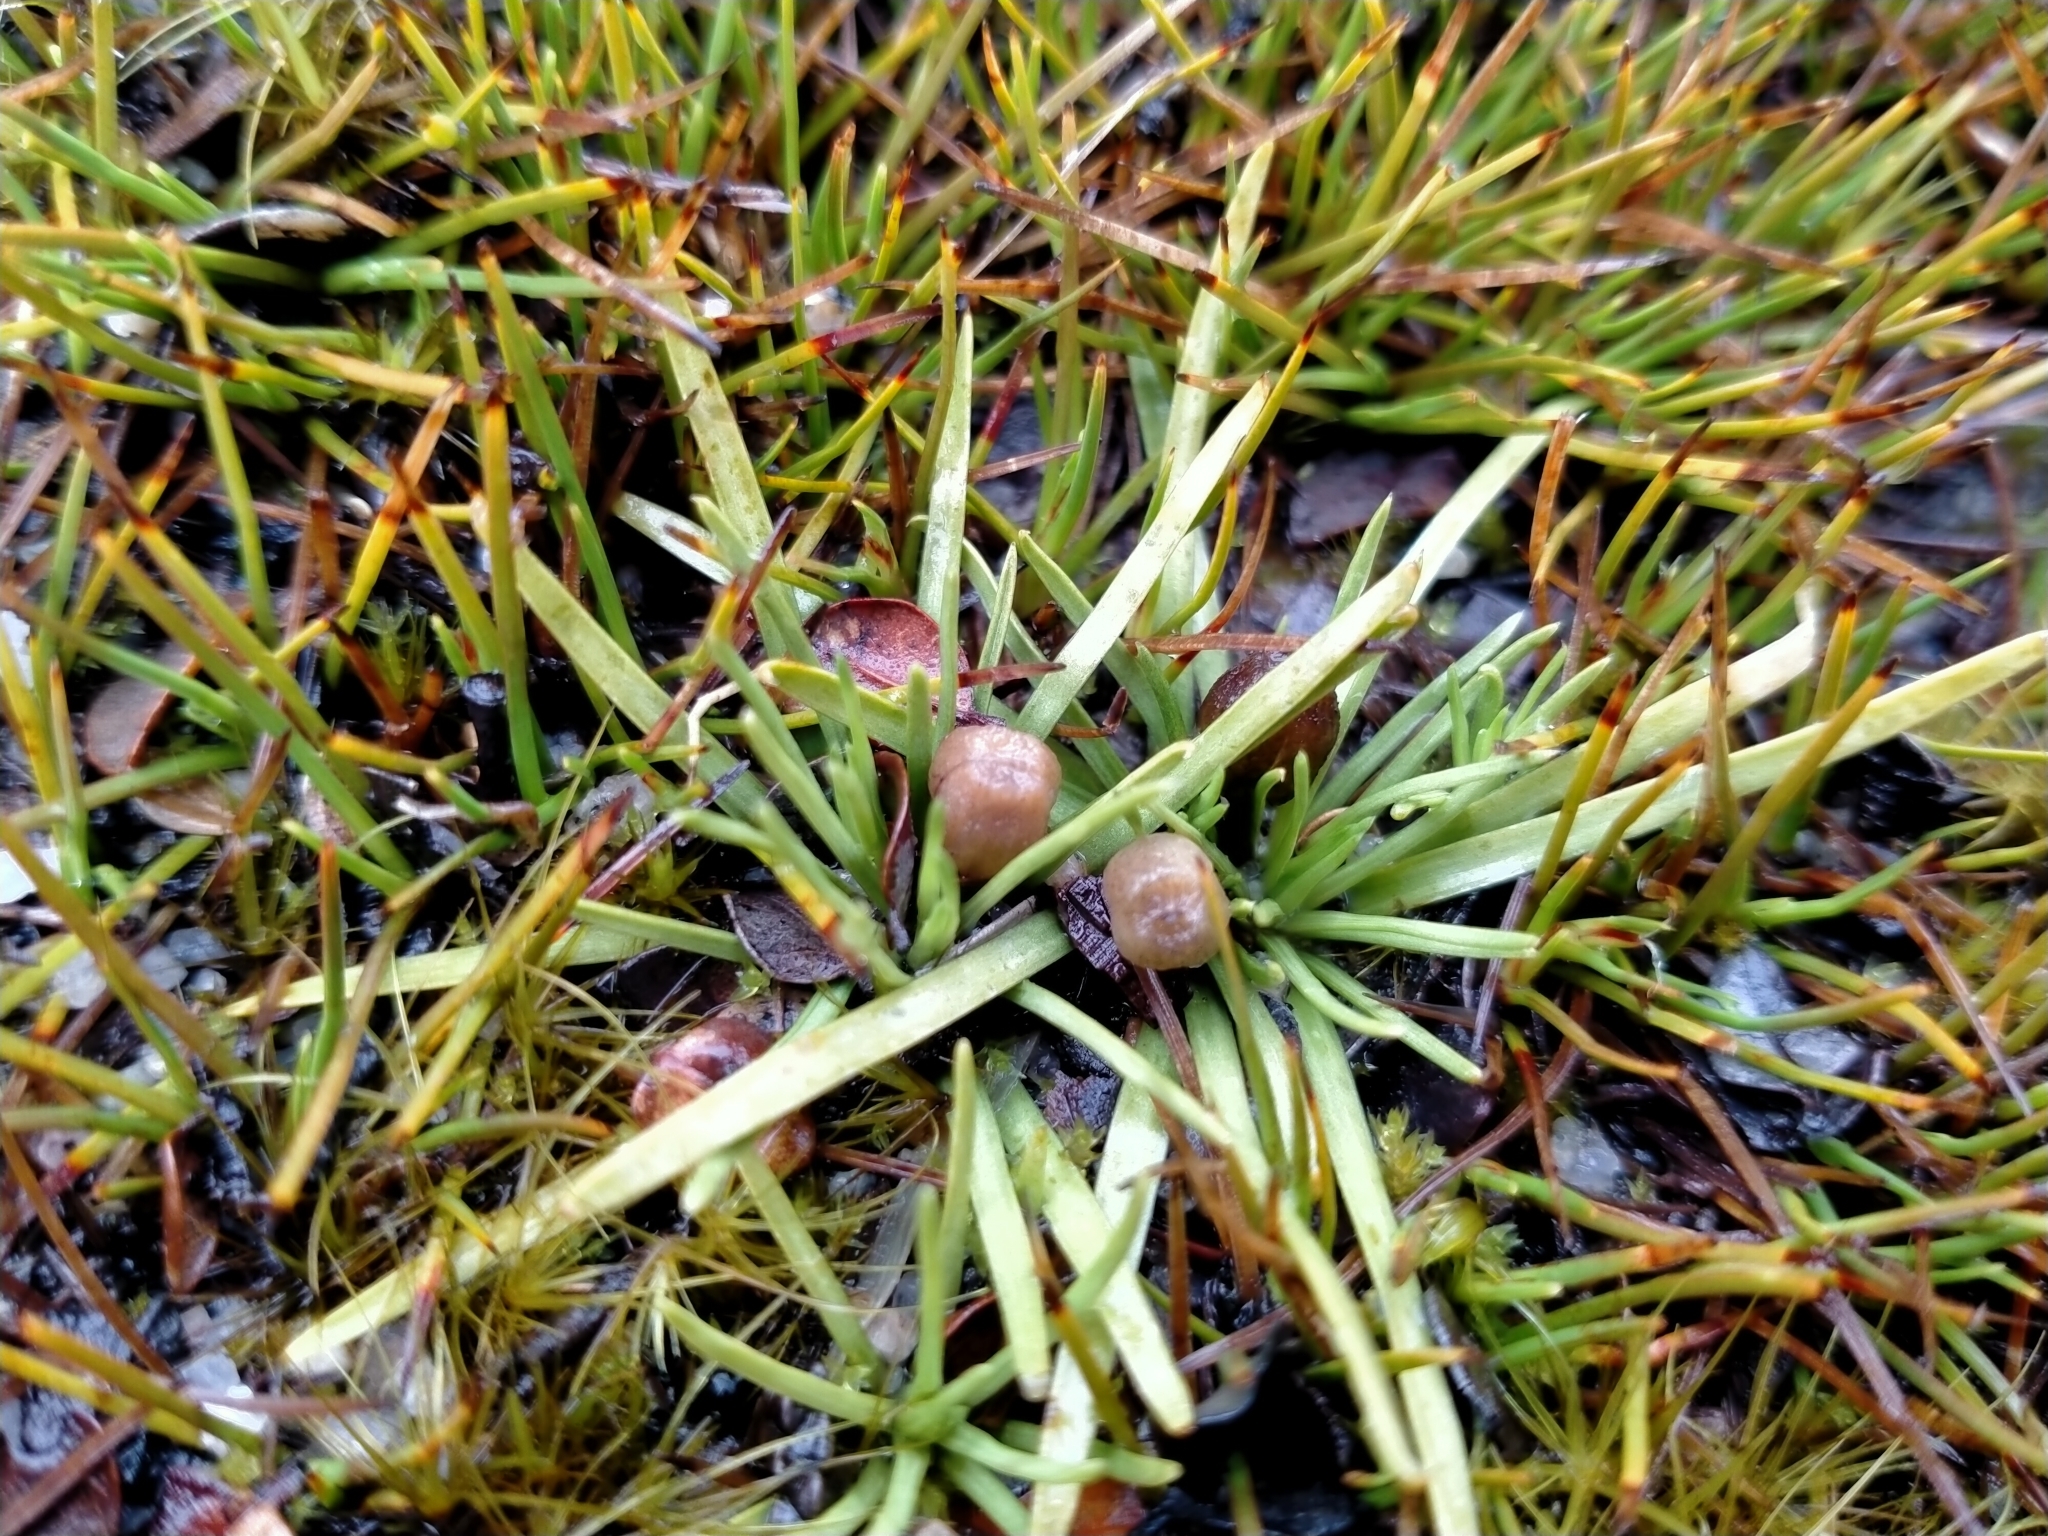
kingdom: Plantae
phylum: Tracheophyta
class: Magnoliopsida
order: Asterales
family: Stylidiaceae
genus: Oreostylidium
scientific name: Oreostylidium subulatum
